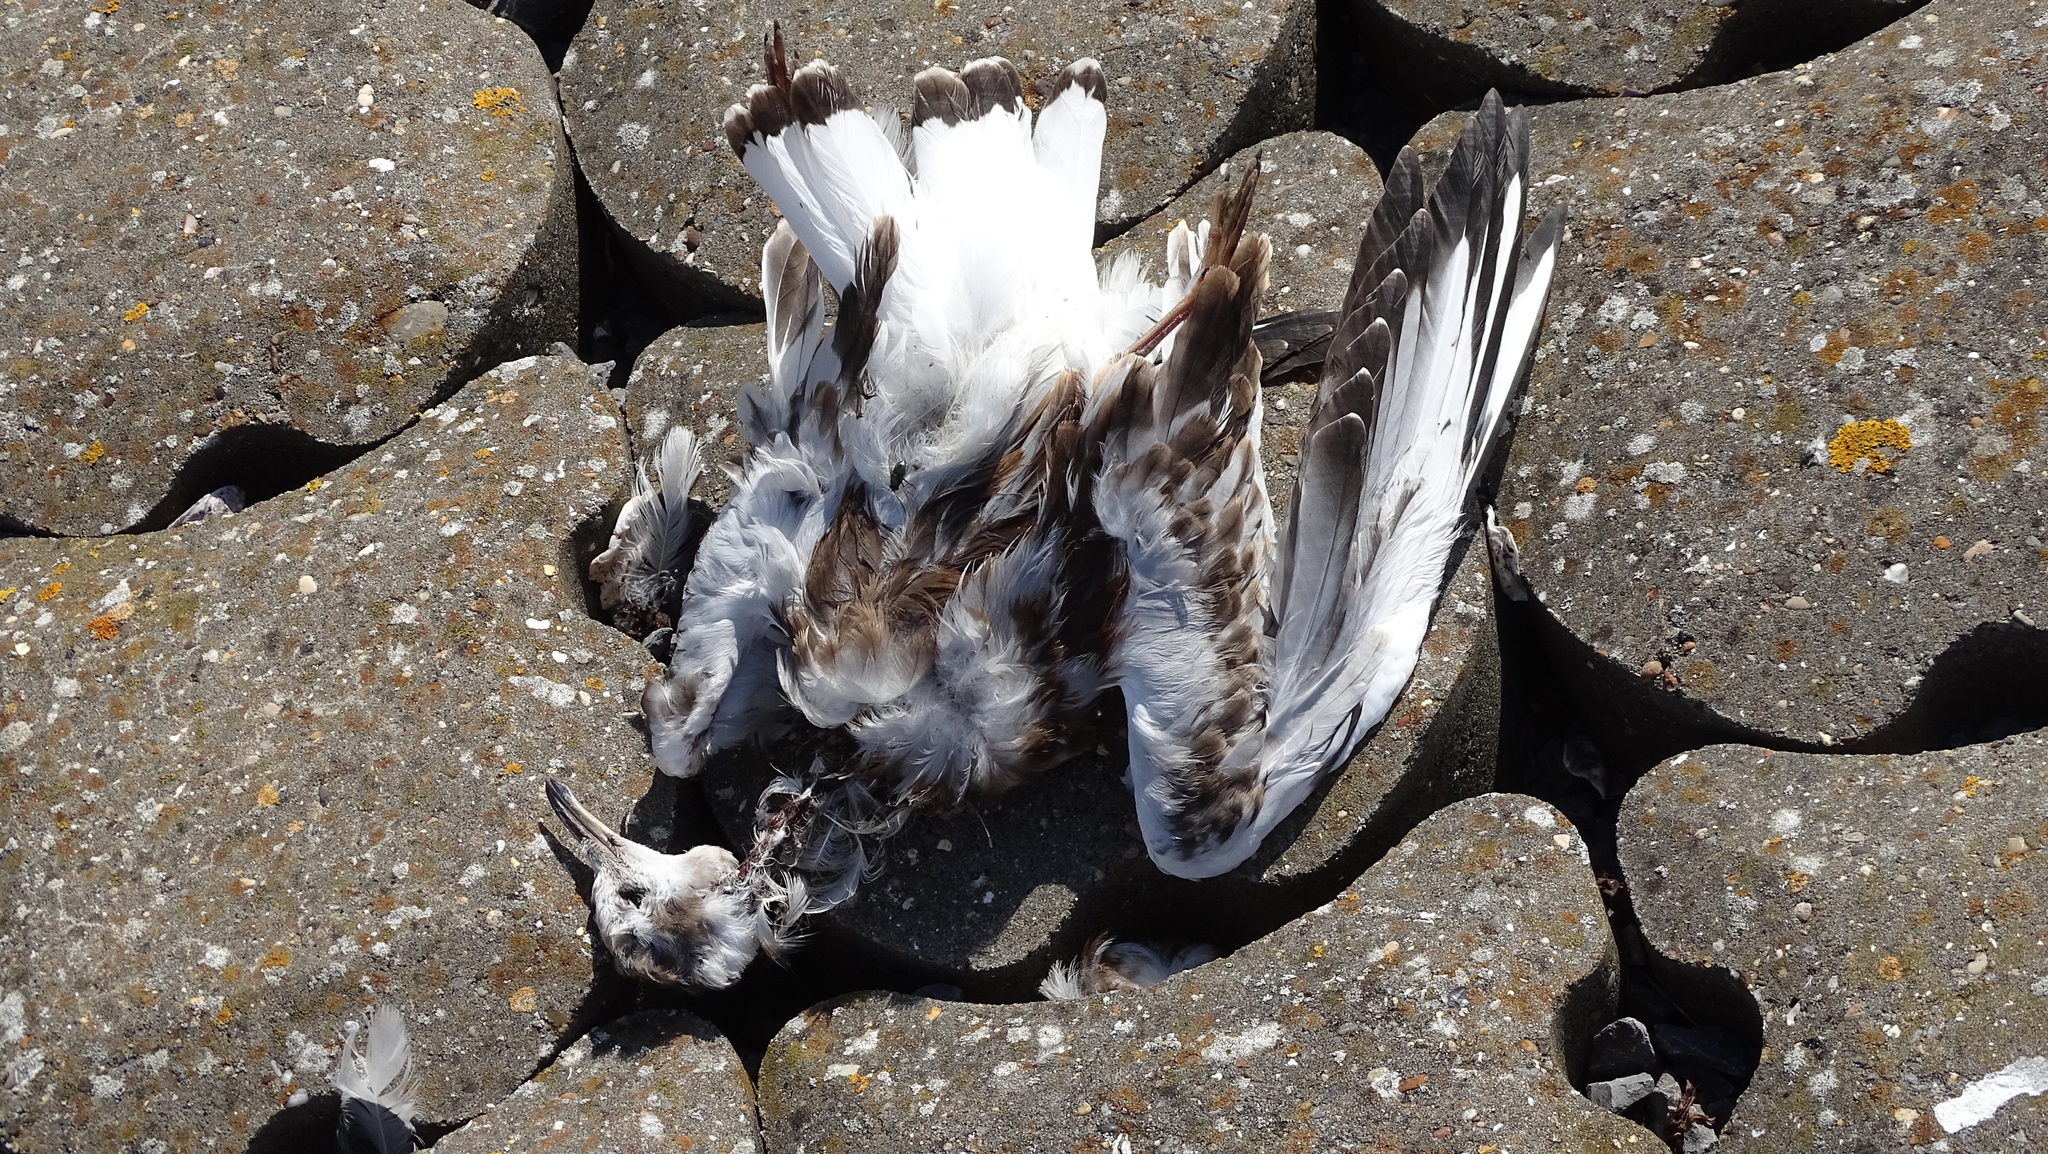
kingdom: Animalia
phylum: Chordata
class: Aves
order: Charadriiformes
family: Laridae
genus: Chroicocephalus
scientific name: Chroicocephalus ridibundus
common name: Black-headed gull
